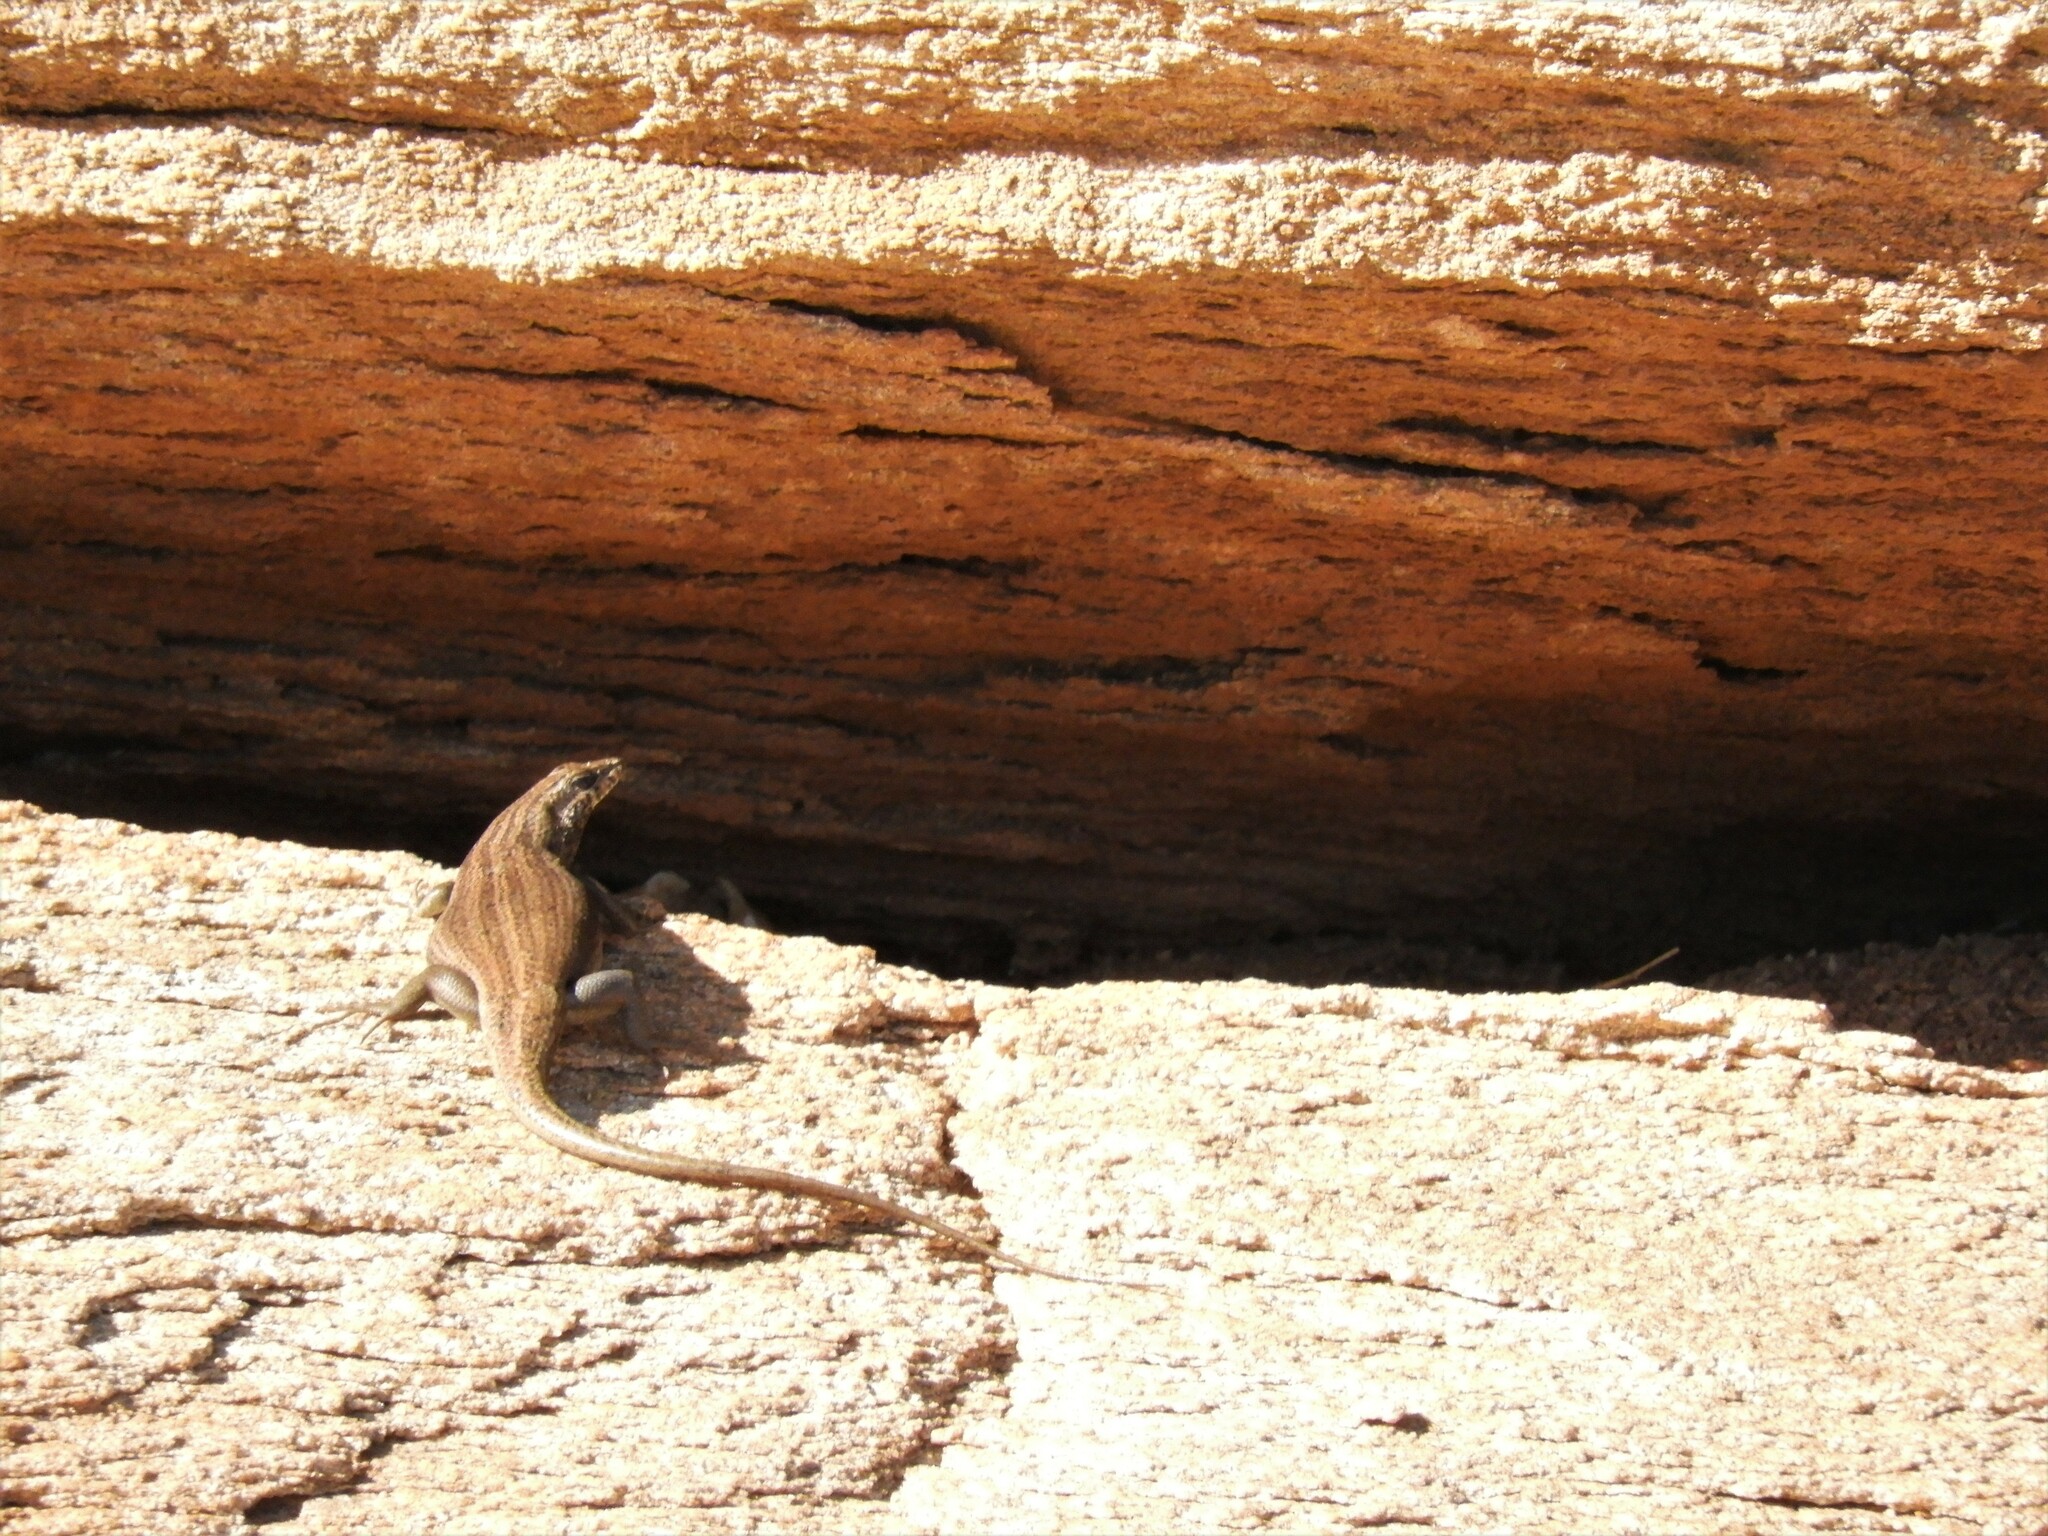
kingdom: Animalia
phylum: Chordata
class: Squamata
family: Scincidae
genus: Trachylepis
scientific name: Trachylepis sulcata
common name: Western rock skink
